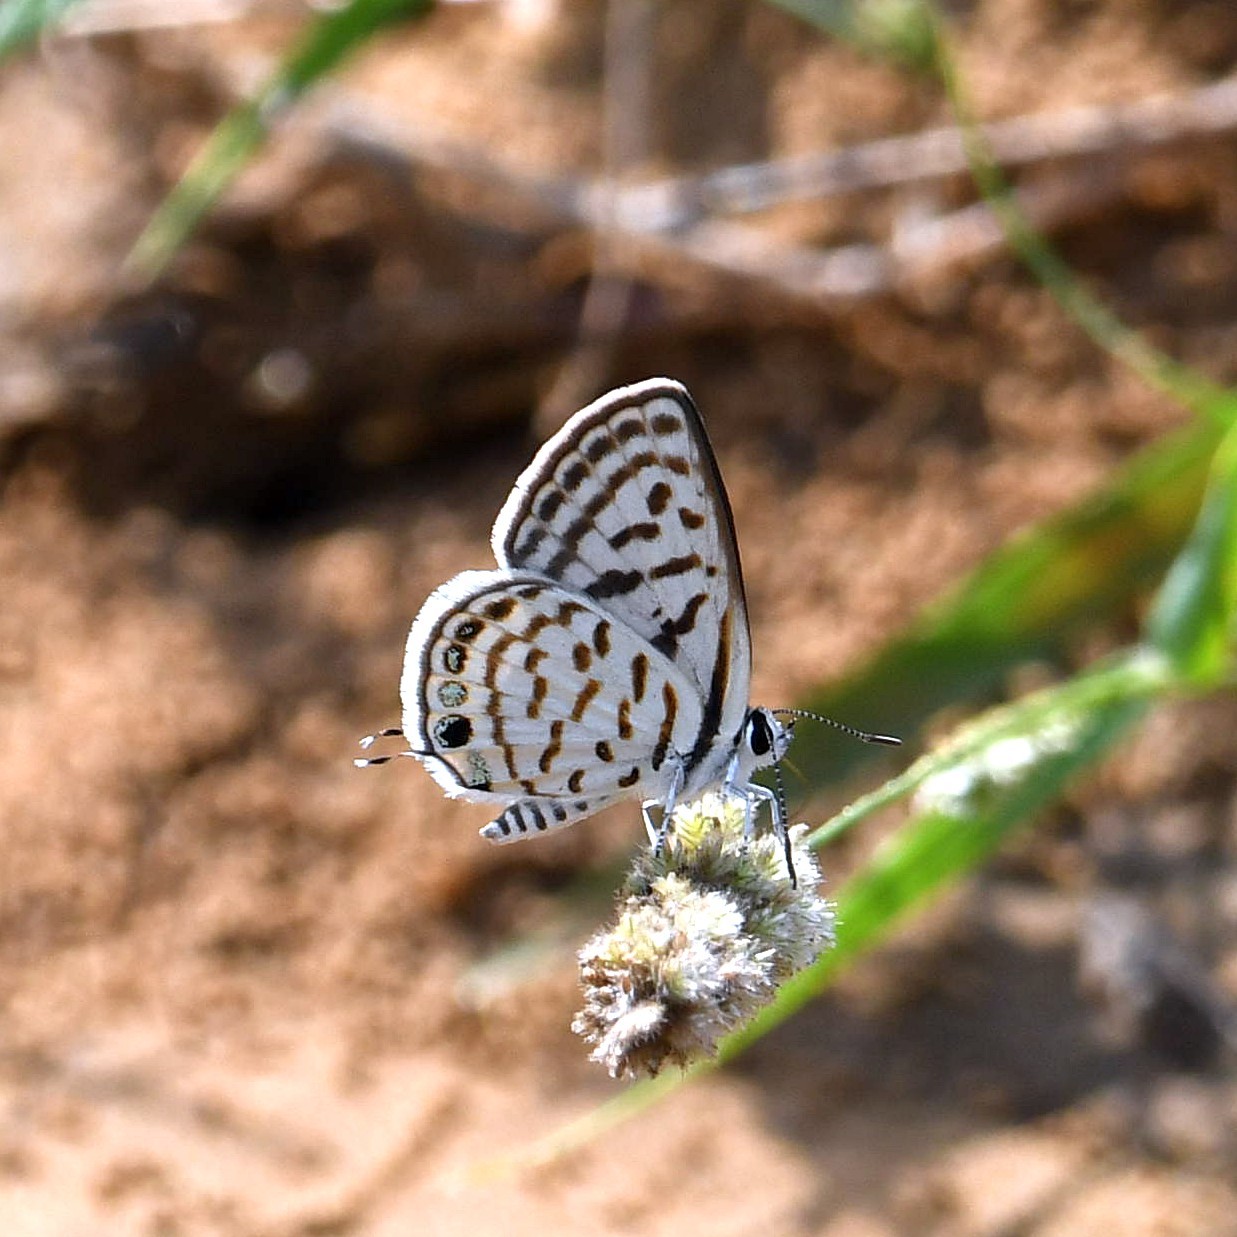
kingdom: Animalia
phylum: Arthropoda
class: Insecta
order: Lepidoptera
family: Lycaenidae
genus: Tarucus
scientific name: Tarucus
